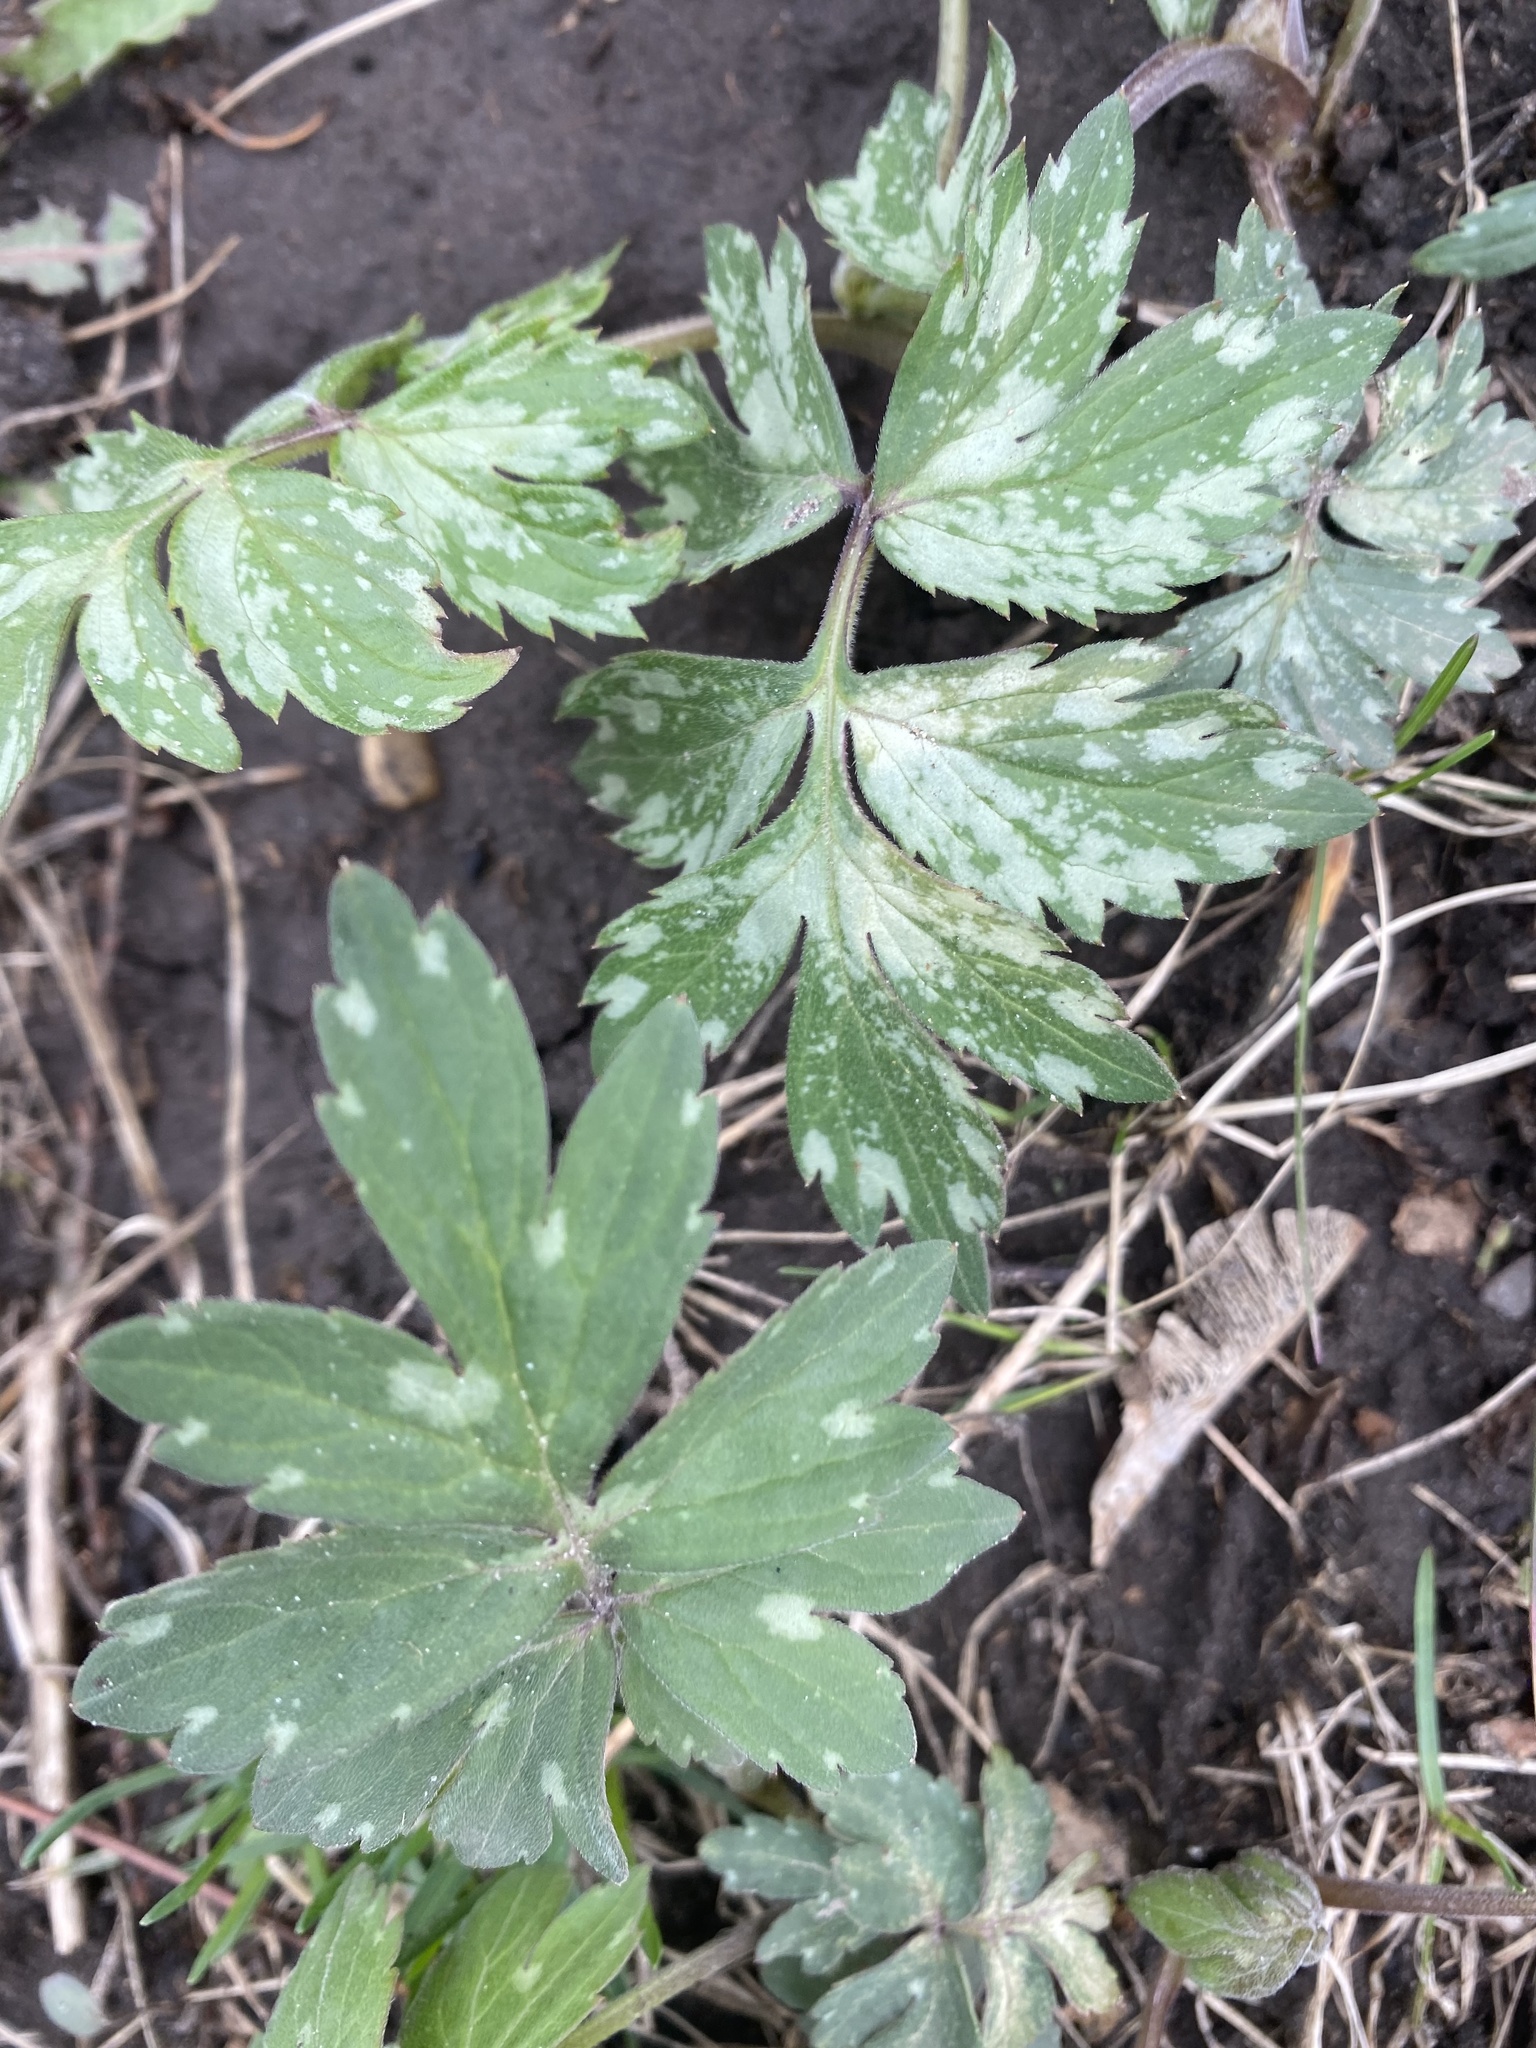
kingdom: Plantae
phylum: Tracheophyta
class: Magnoliopsida
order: Boraginales
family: Hydrophyllaceae
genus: Hydrophyllum
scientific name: Hydrophyllum virginianum
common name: Virginia waterleaf
